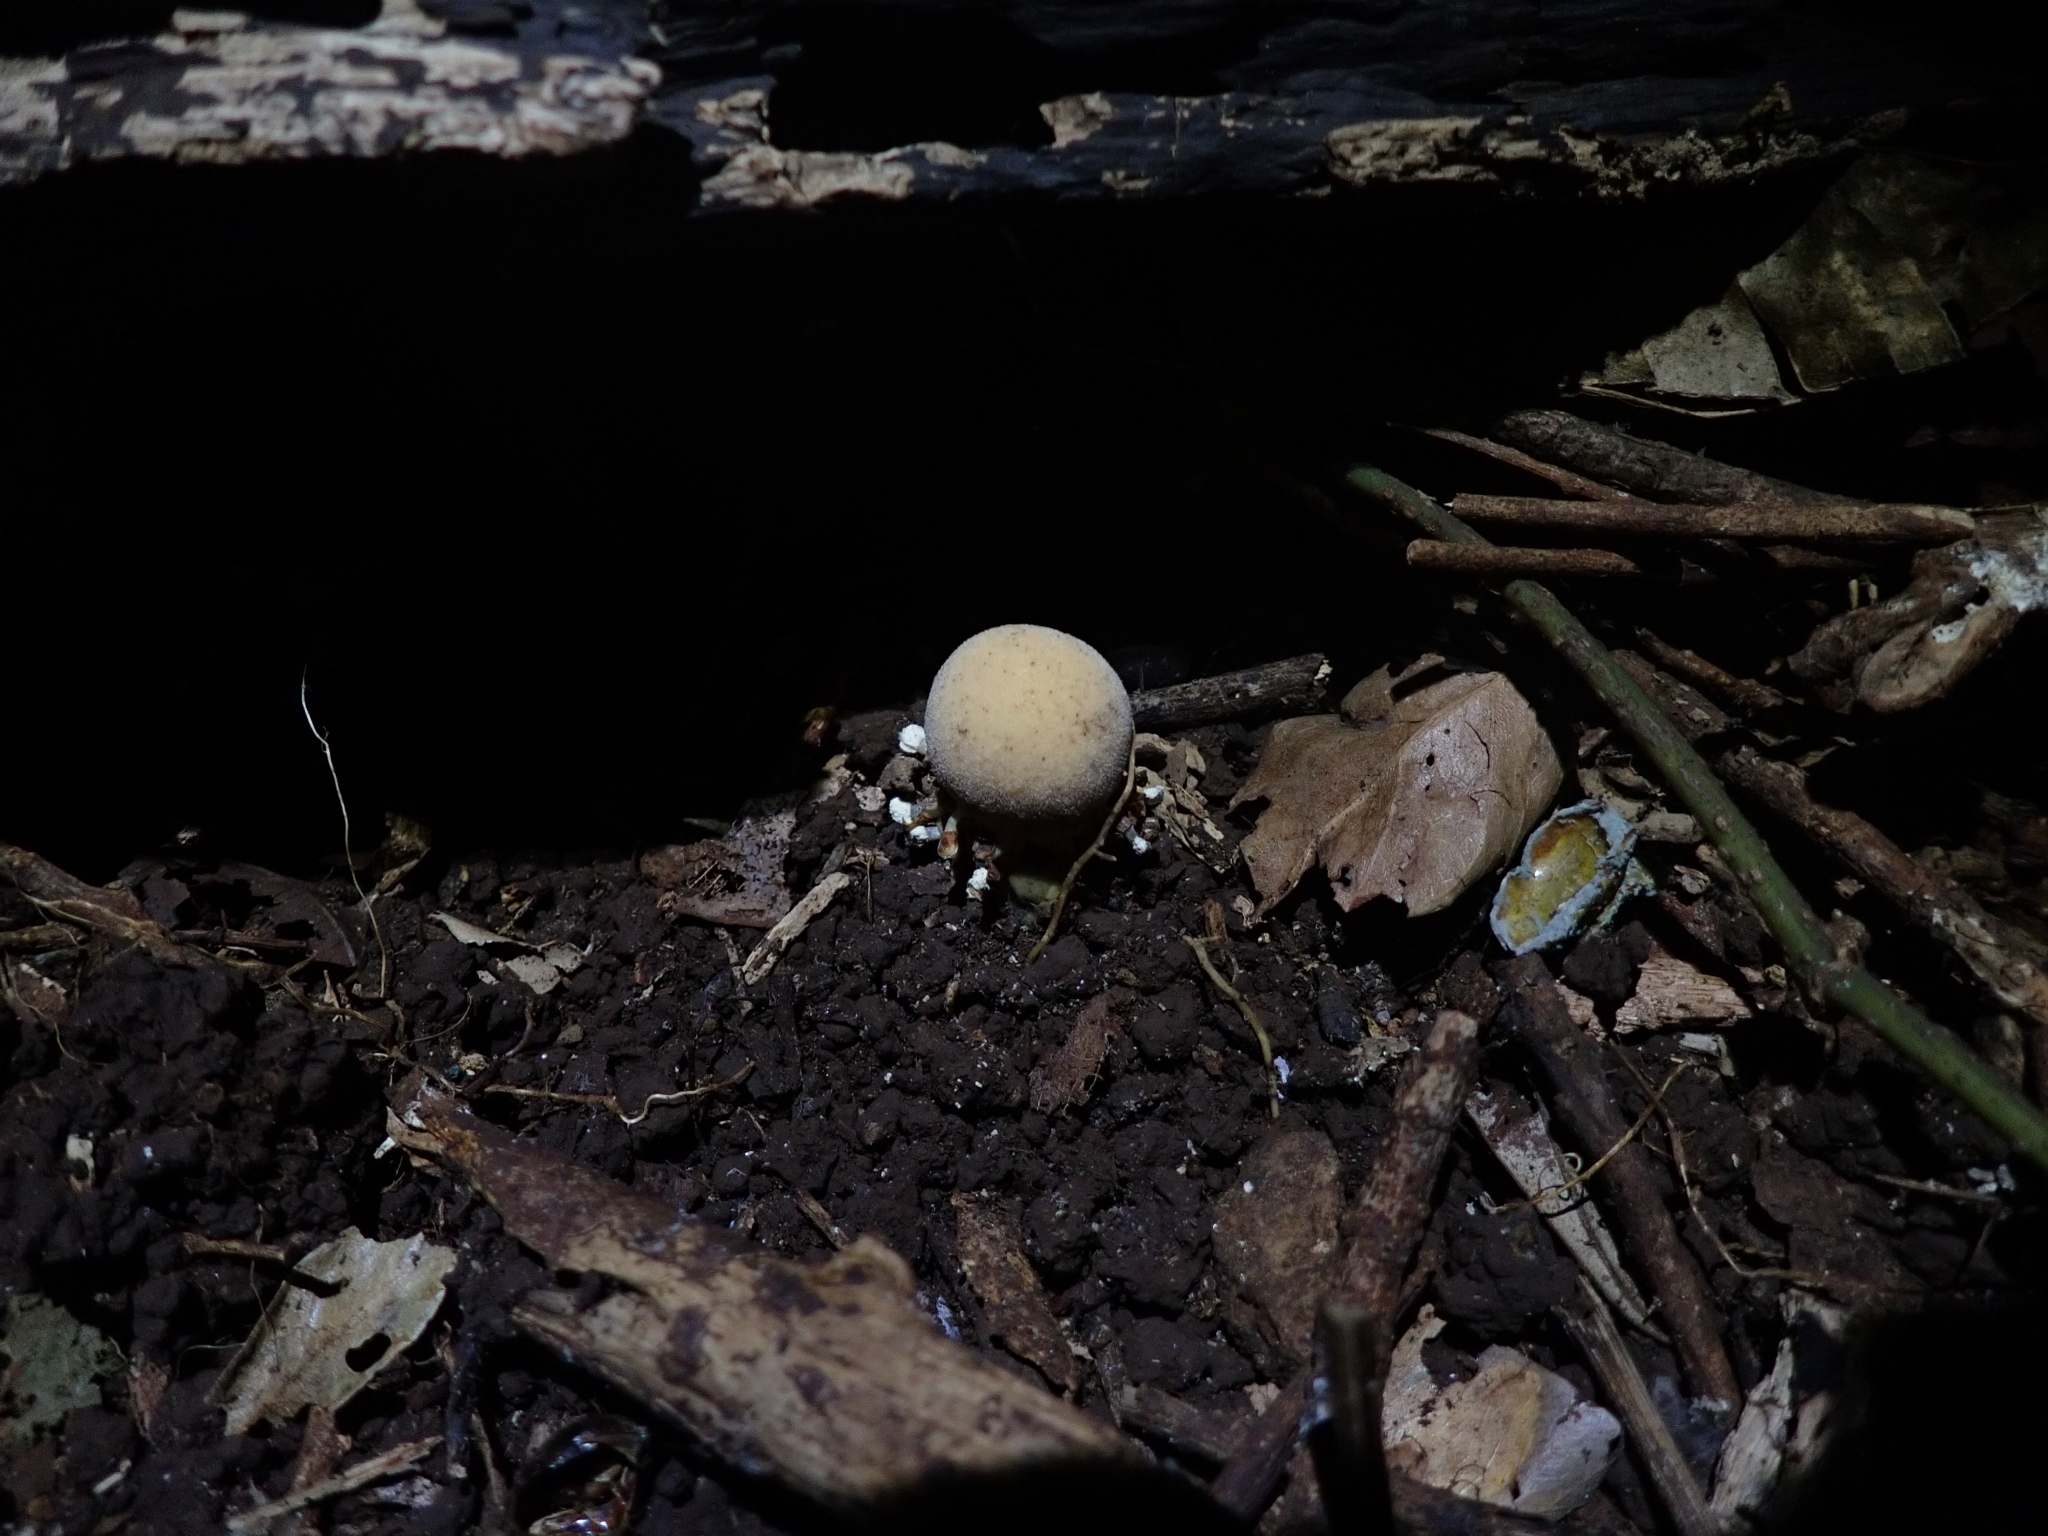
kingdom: Plantae
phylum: Tracheophyta
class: Magnoliopsida
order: Santalales
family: Balanophoraceae
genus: Balanophora
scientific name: Balanophora fungosa
